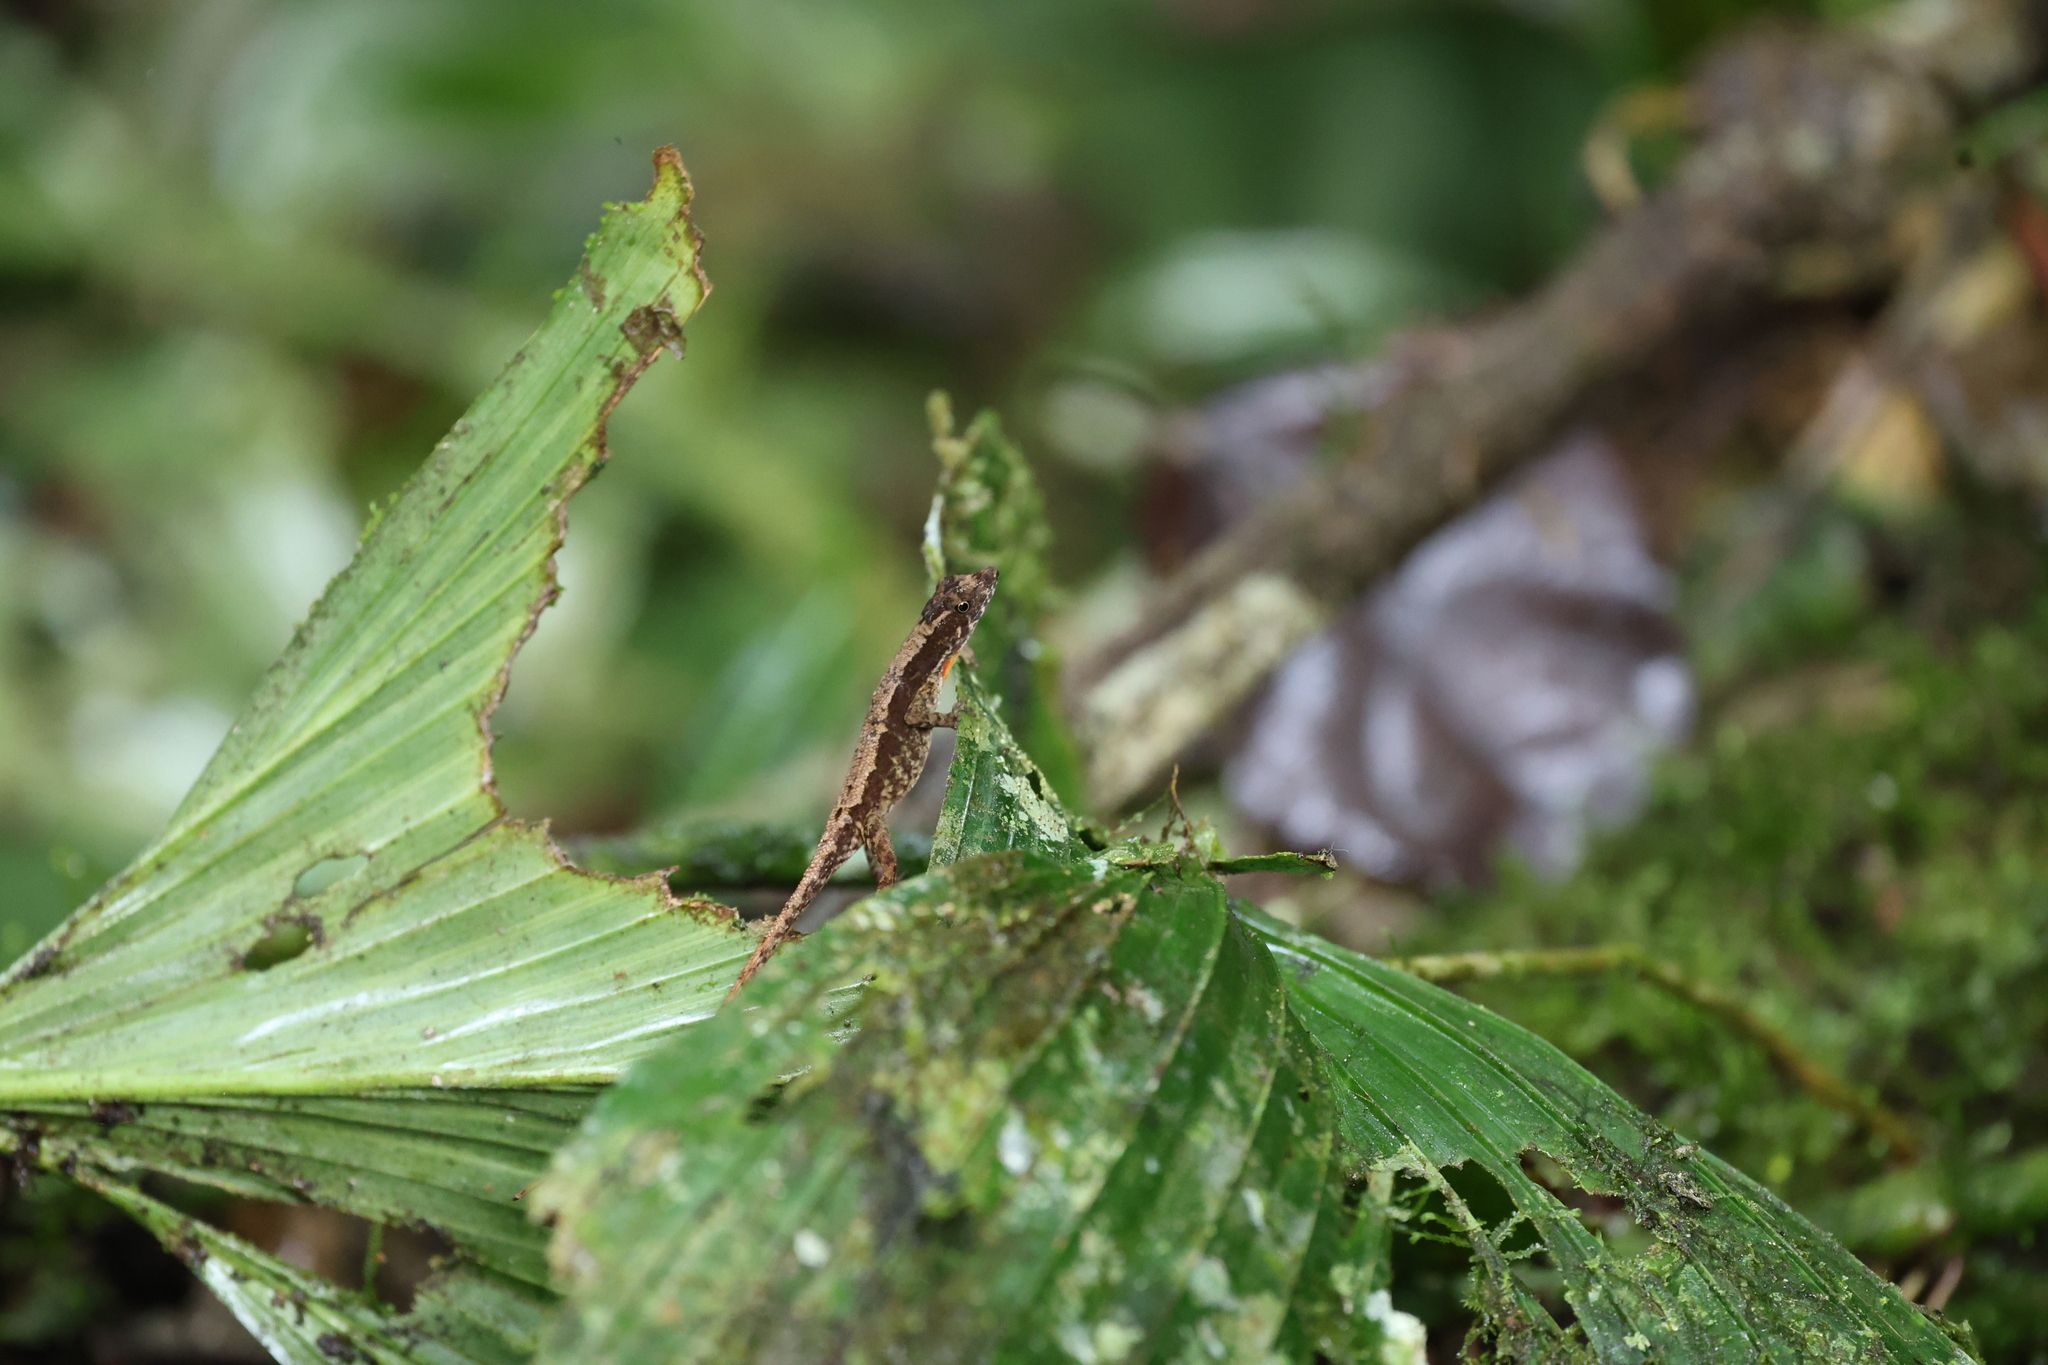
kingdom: Animalia
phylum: Chordata
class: Squamata
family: Dactyloidae
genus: Anolis
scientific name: Anolis humilis
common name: Humble anole
